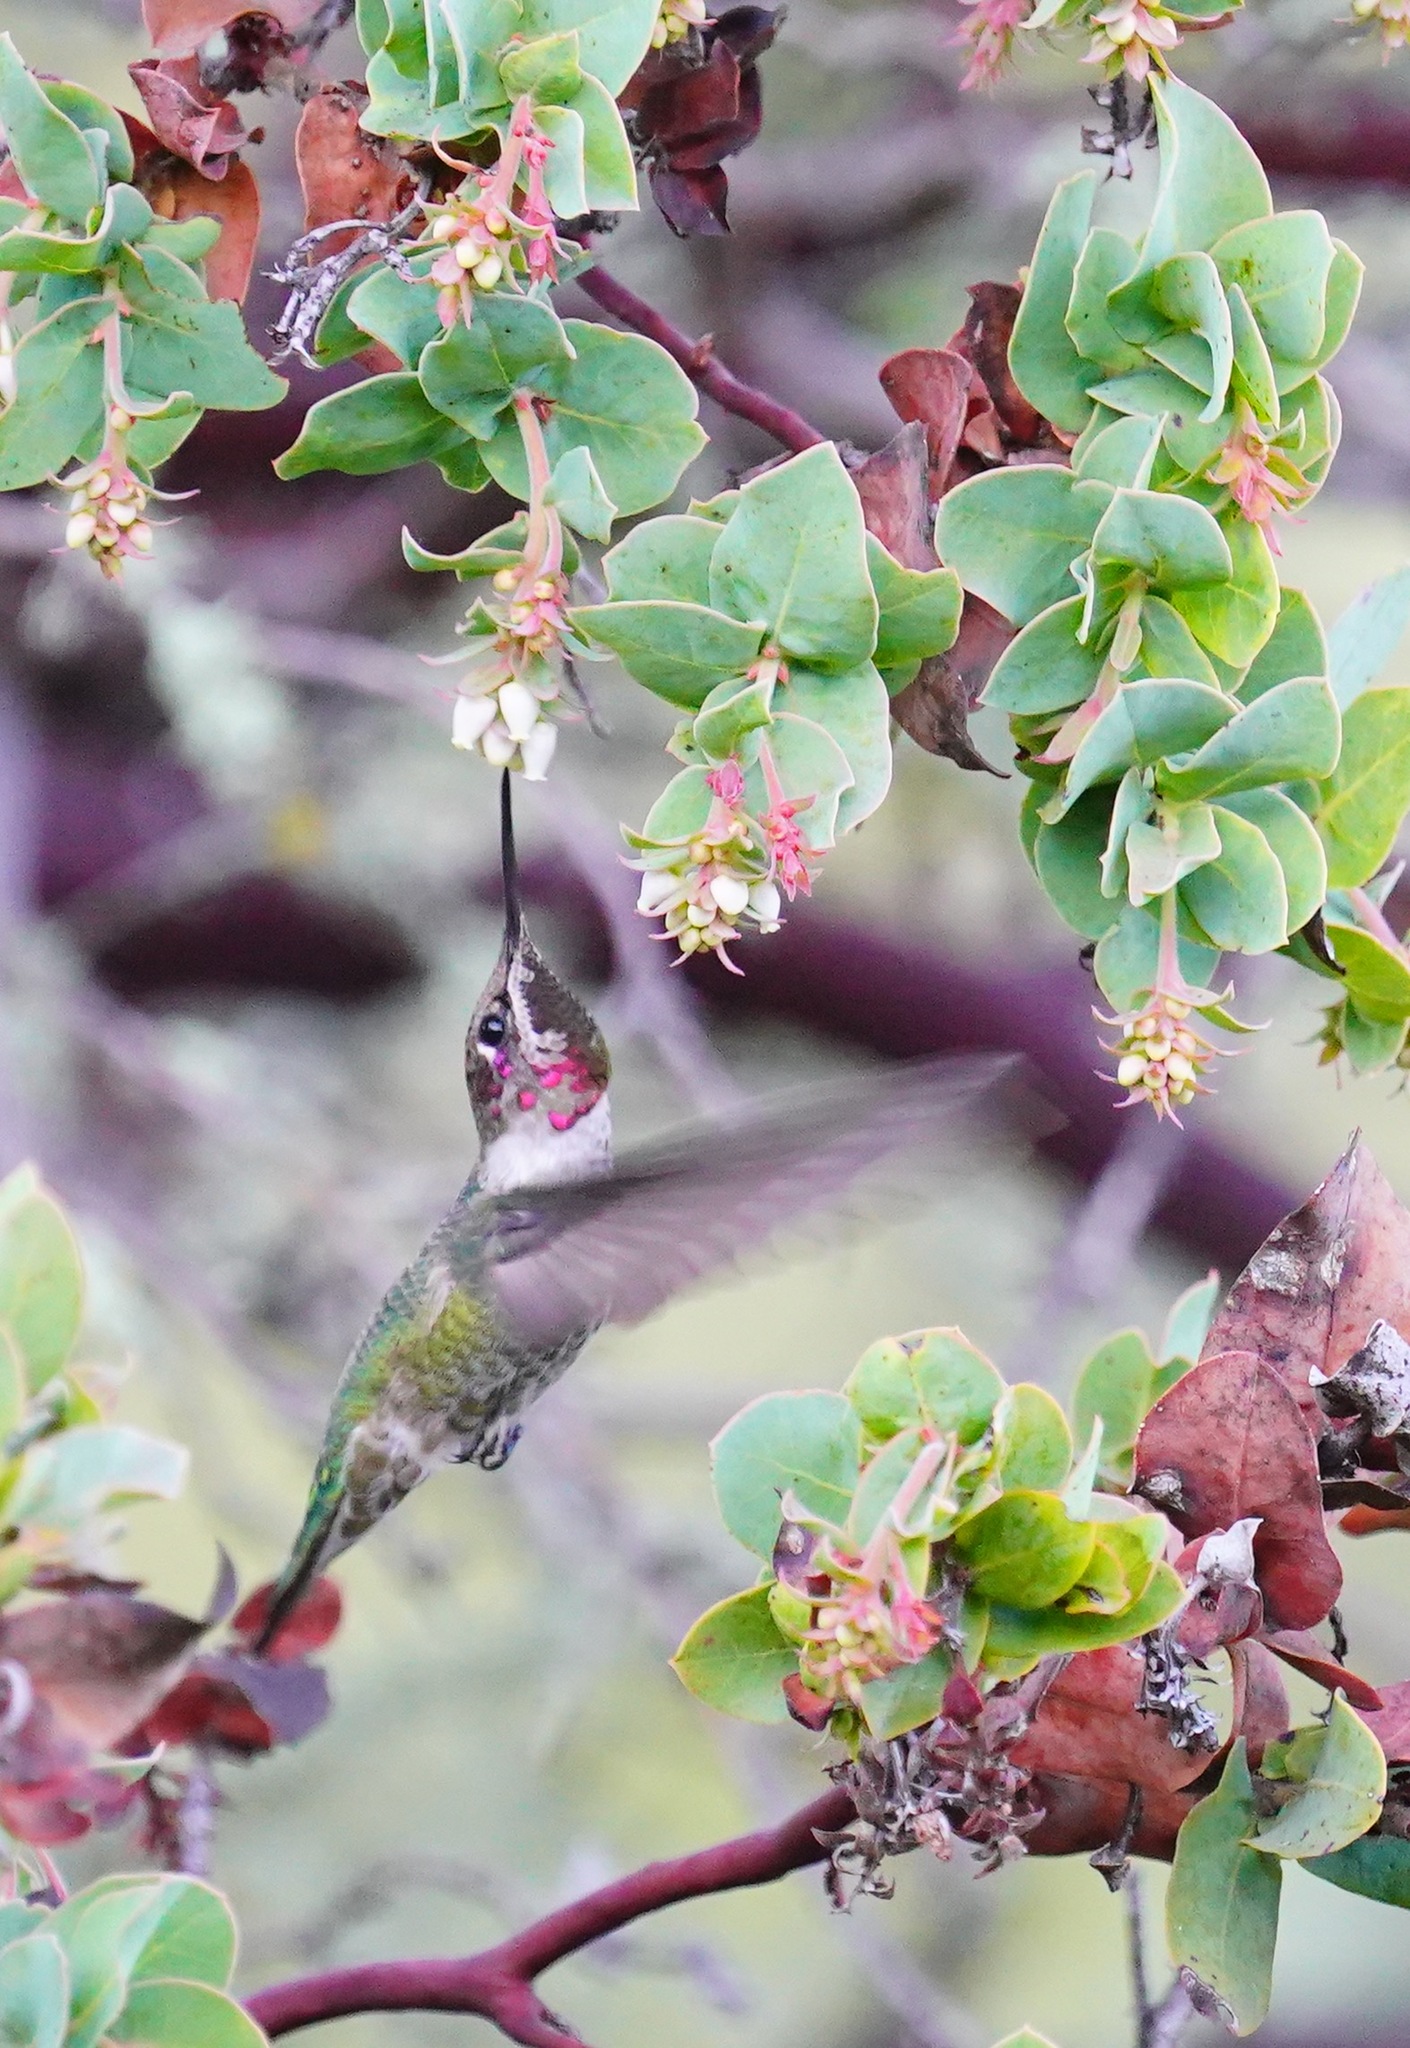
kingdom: Animalia
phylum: Chordata
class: Aves
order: Apodiformes
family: Trochilidae
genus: Calypte
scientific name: Calypte anna
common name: Anna's hummingbird
